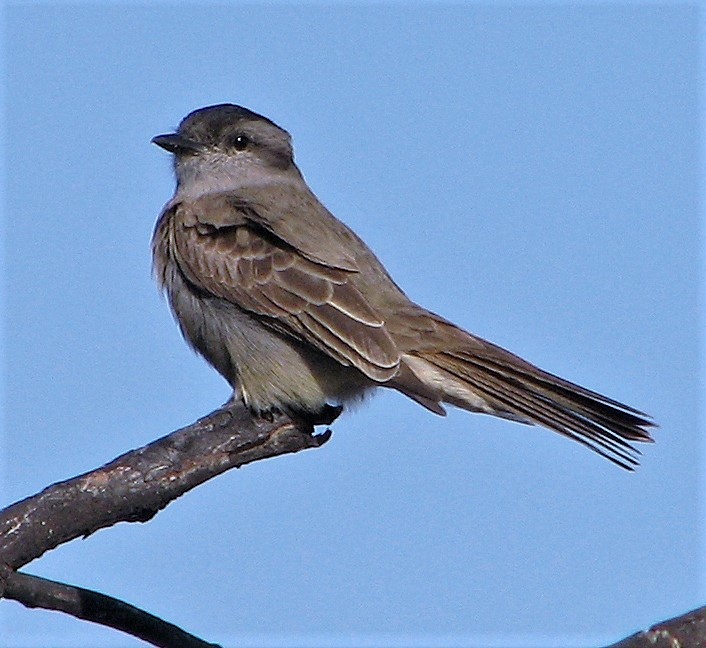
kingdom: Animalia
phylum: Chordata
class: Aves
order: Passeriformes
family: Tyrannidae
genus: Empidonomus
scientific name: Empidonomus aurantioatrocristatus
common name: Crowned slaty flycatcher
